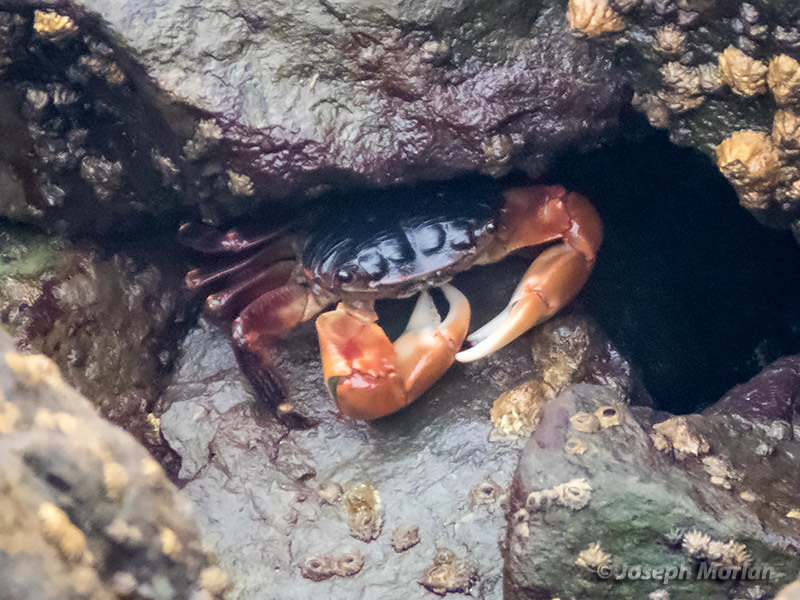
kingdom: Animalia
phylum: Arthropoda
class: Malacostraca
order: Decapoda
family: Grapsidae
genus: Pachygrapsus
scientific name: Pachygrapsus crassipes
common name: Striped shore crab
